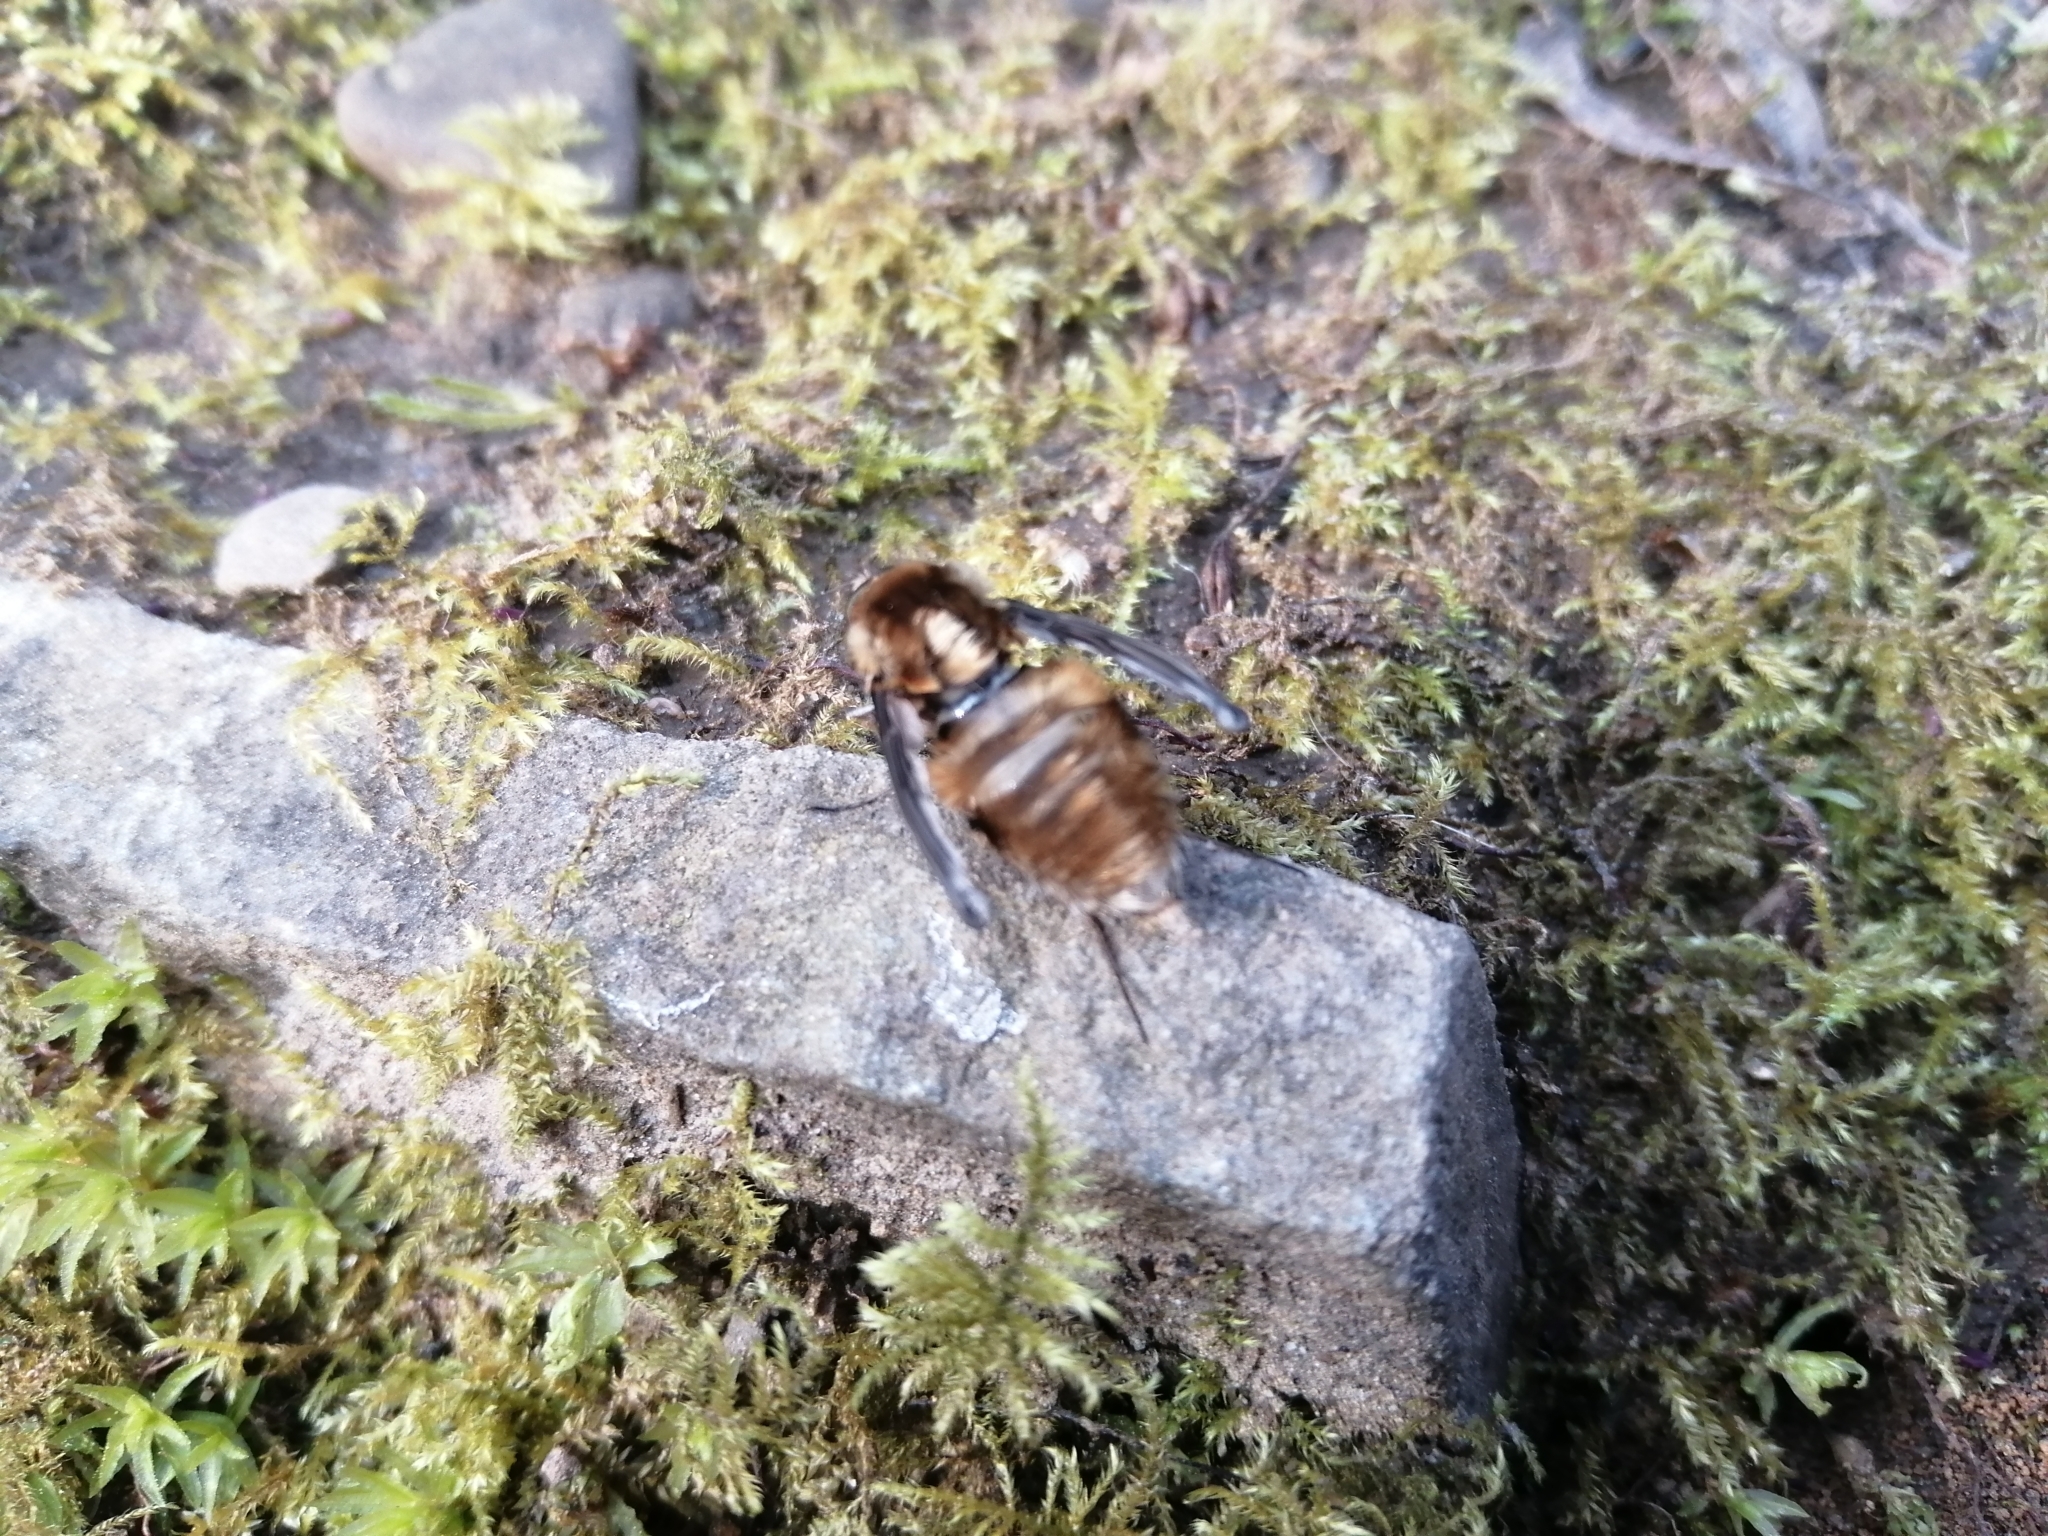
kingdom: Animalia
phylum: Arthropoda
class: Insecta
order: Diptera
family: Bombyliidae
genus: Bombylius
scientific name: Bombylius major
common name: Bee fly
